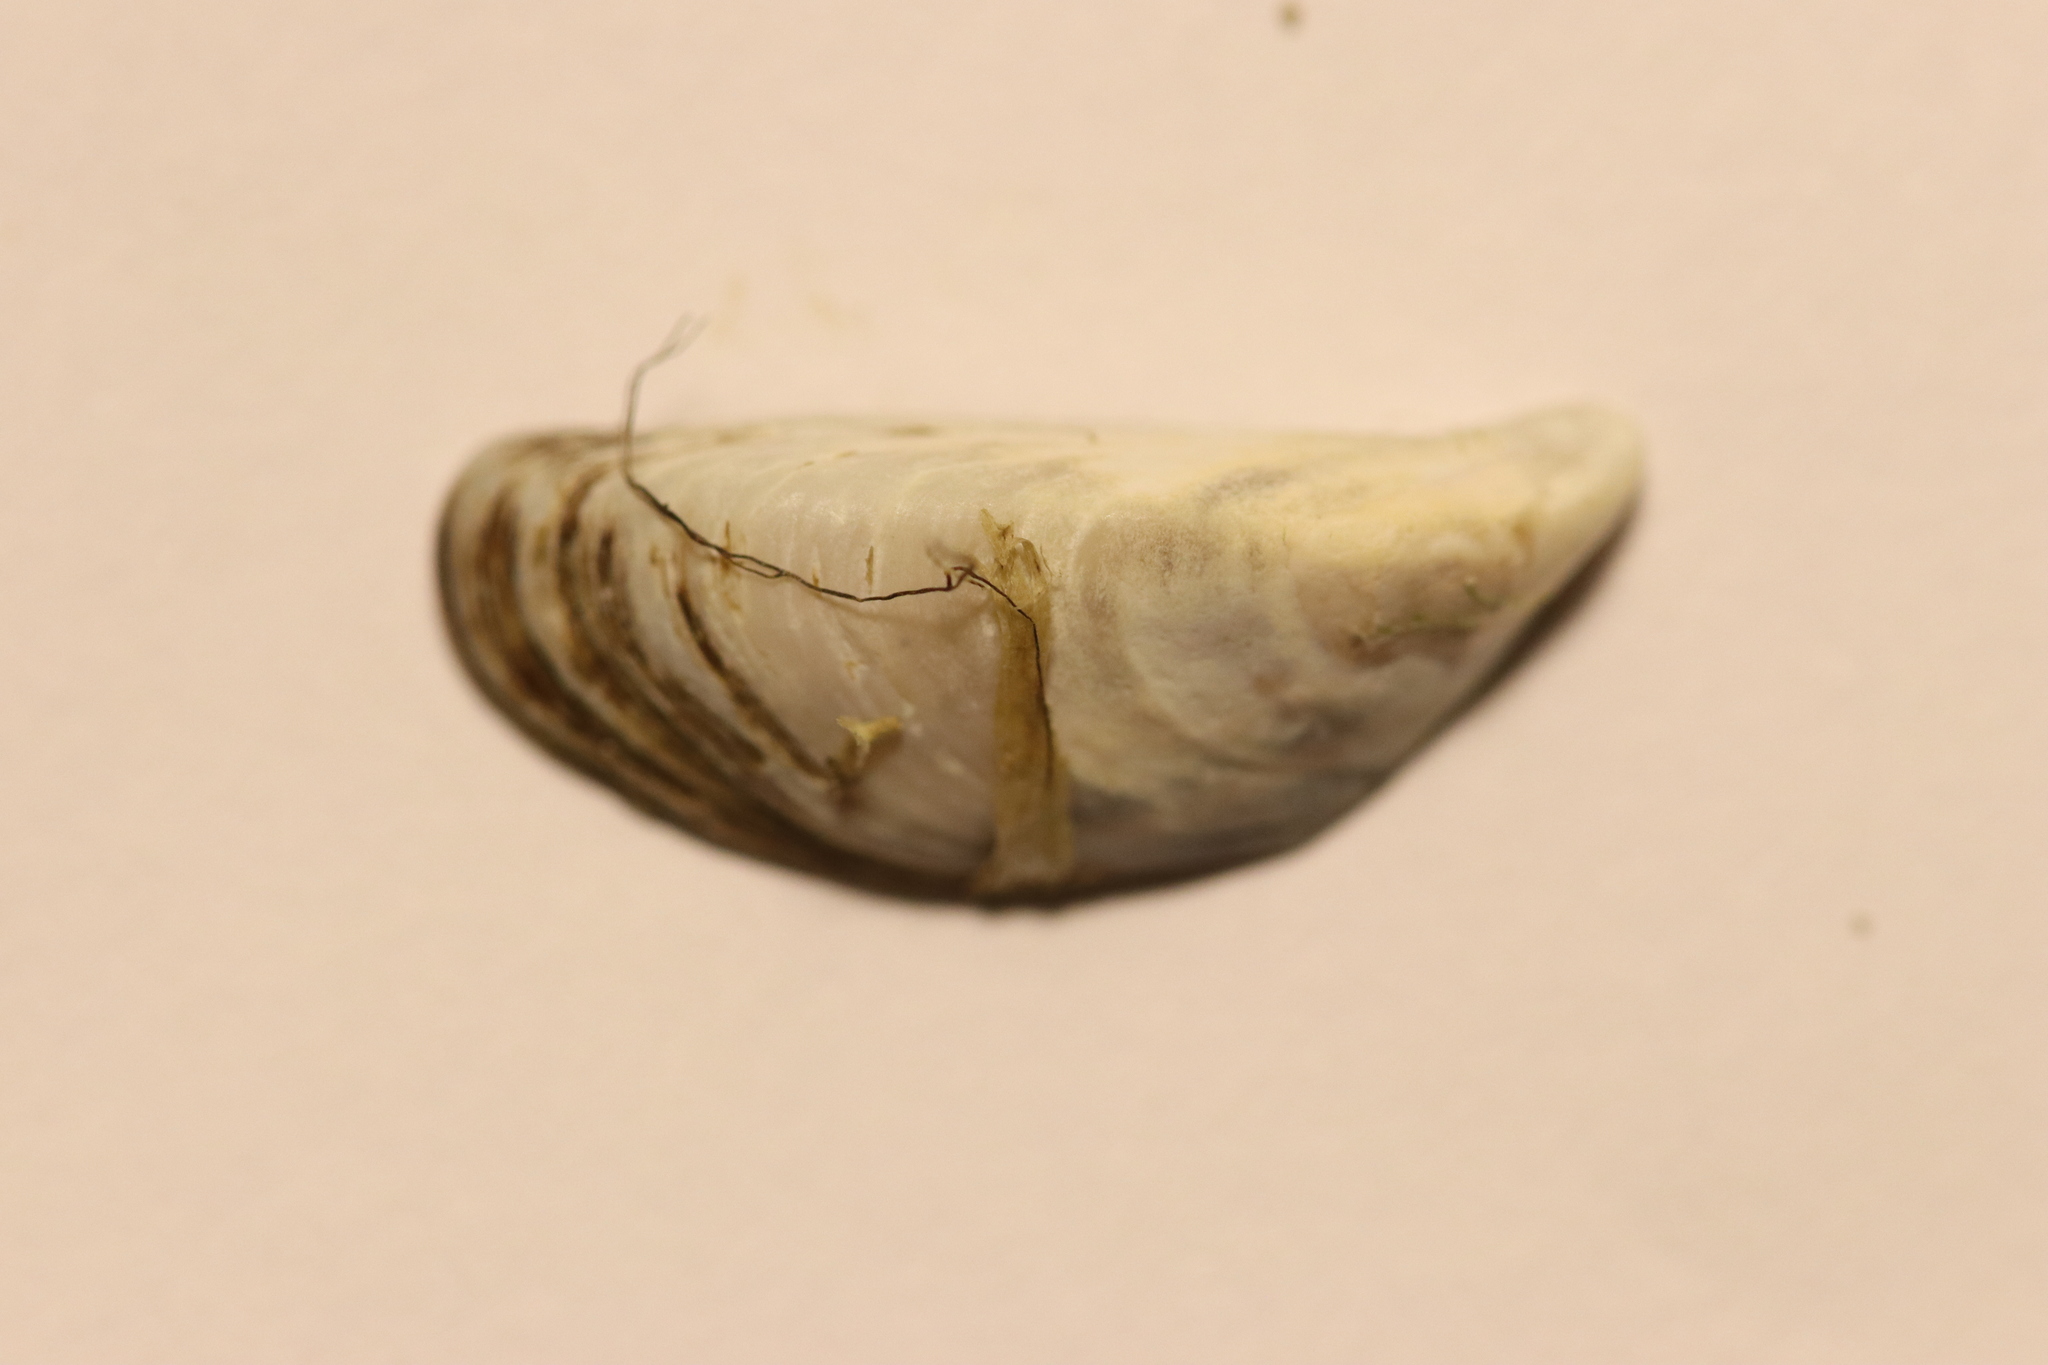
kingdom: Animalia
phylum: Mollusca
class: Bivalvia
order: Myida
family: Dreissenidae
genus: Dreissena
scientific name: Dreissena polymorpha
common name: Zebra mussel
